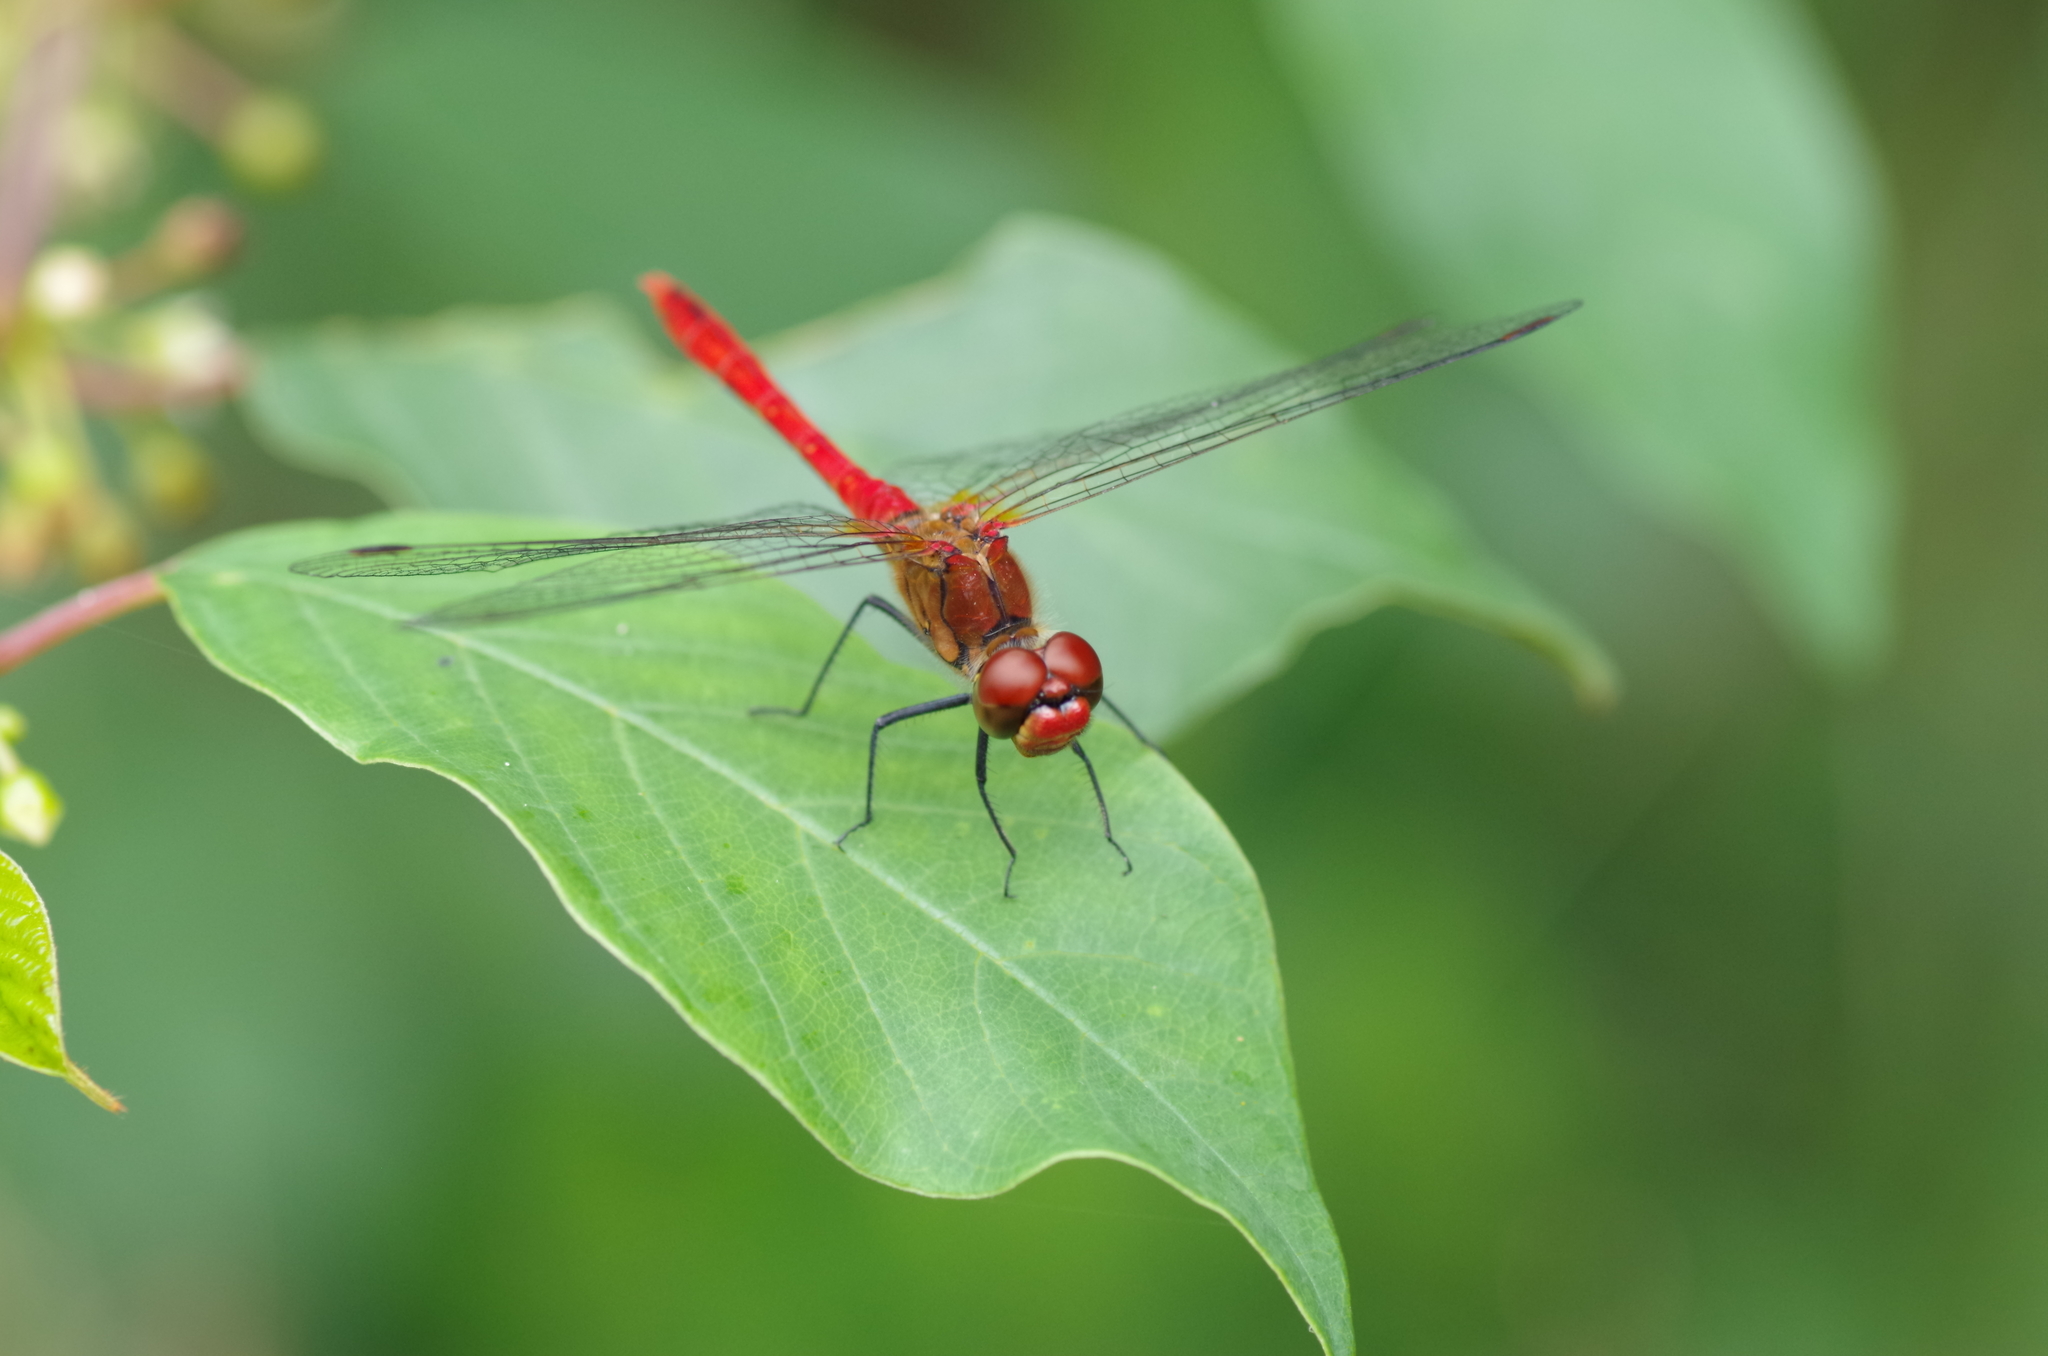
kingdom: Animalia
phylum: Arthropoda
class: Insecta
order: Odonata
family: Libellulidae
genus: Sympetrum
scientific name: Sympetrum sanguineum
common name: Ruddy darter
